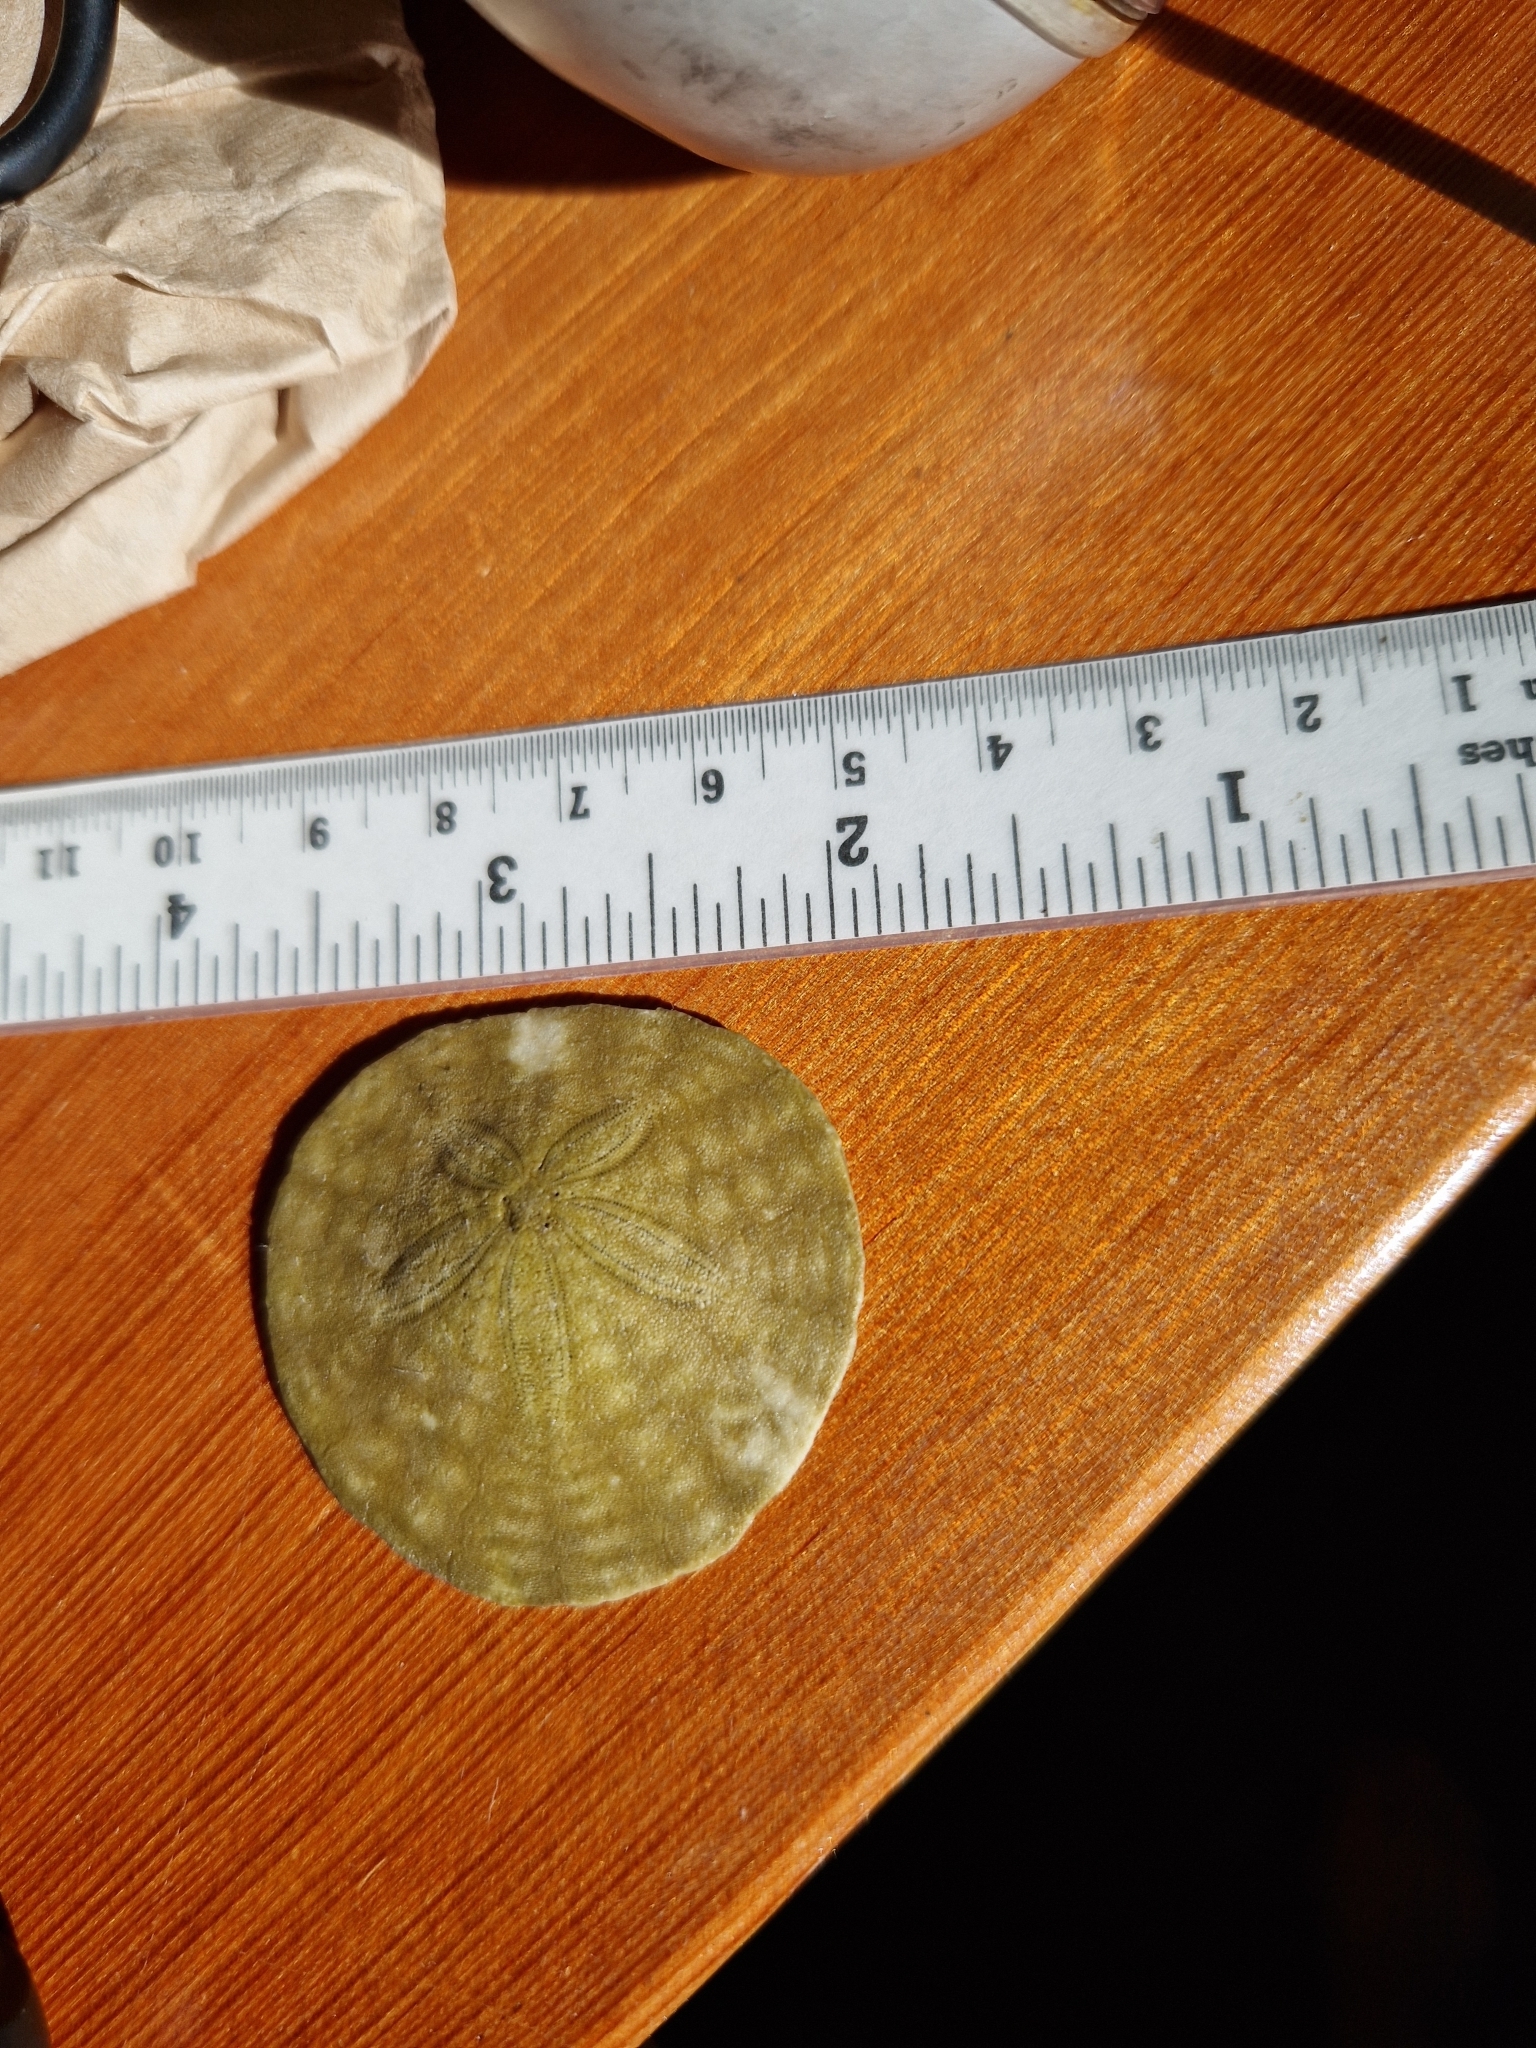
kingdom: Animalia
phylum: Echinodermata
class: Echinoidea
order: Echinolampadacea
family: Dendrasteridae
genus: Dendraster
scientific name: Dendraster excentricus
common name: Eccentric sand dollar sea urchin
